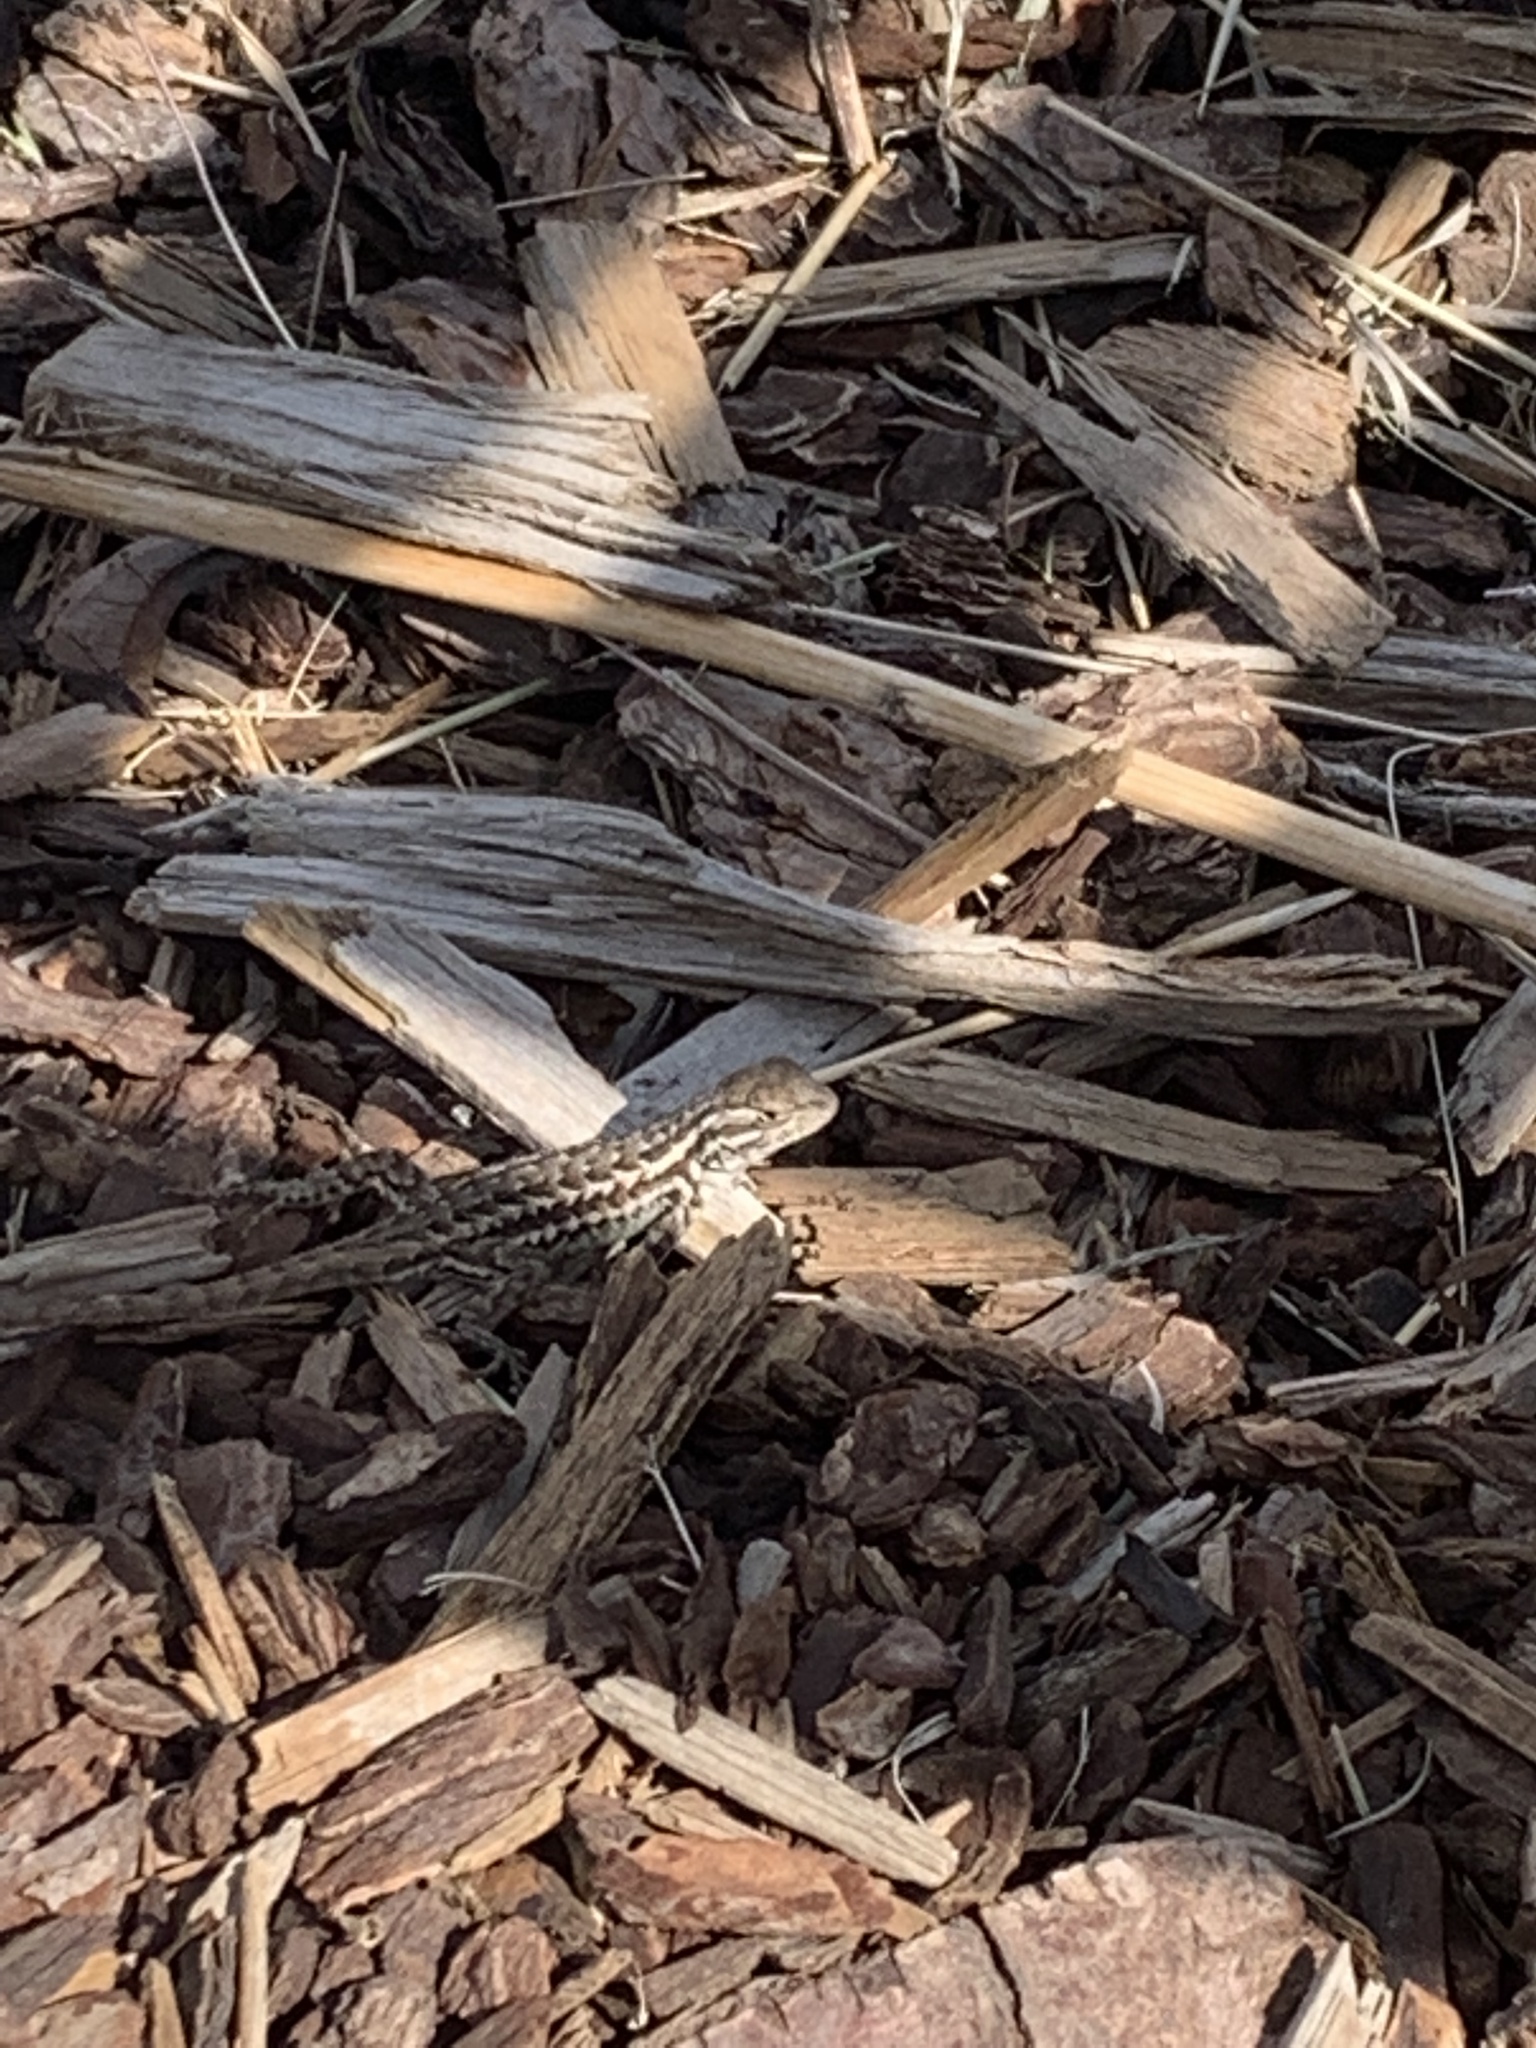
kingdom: Animalia
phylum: Chordata
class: Squamata
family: Phrynosomatidae
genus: Sceloporus
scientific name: Sceloporus graciosus
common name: Sagebrush lizard
